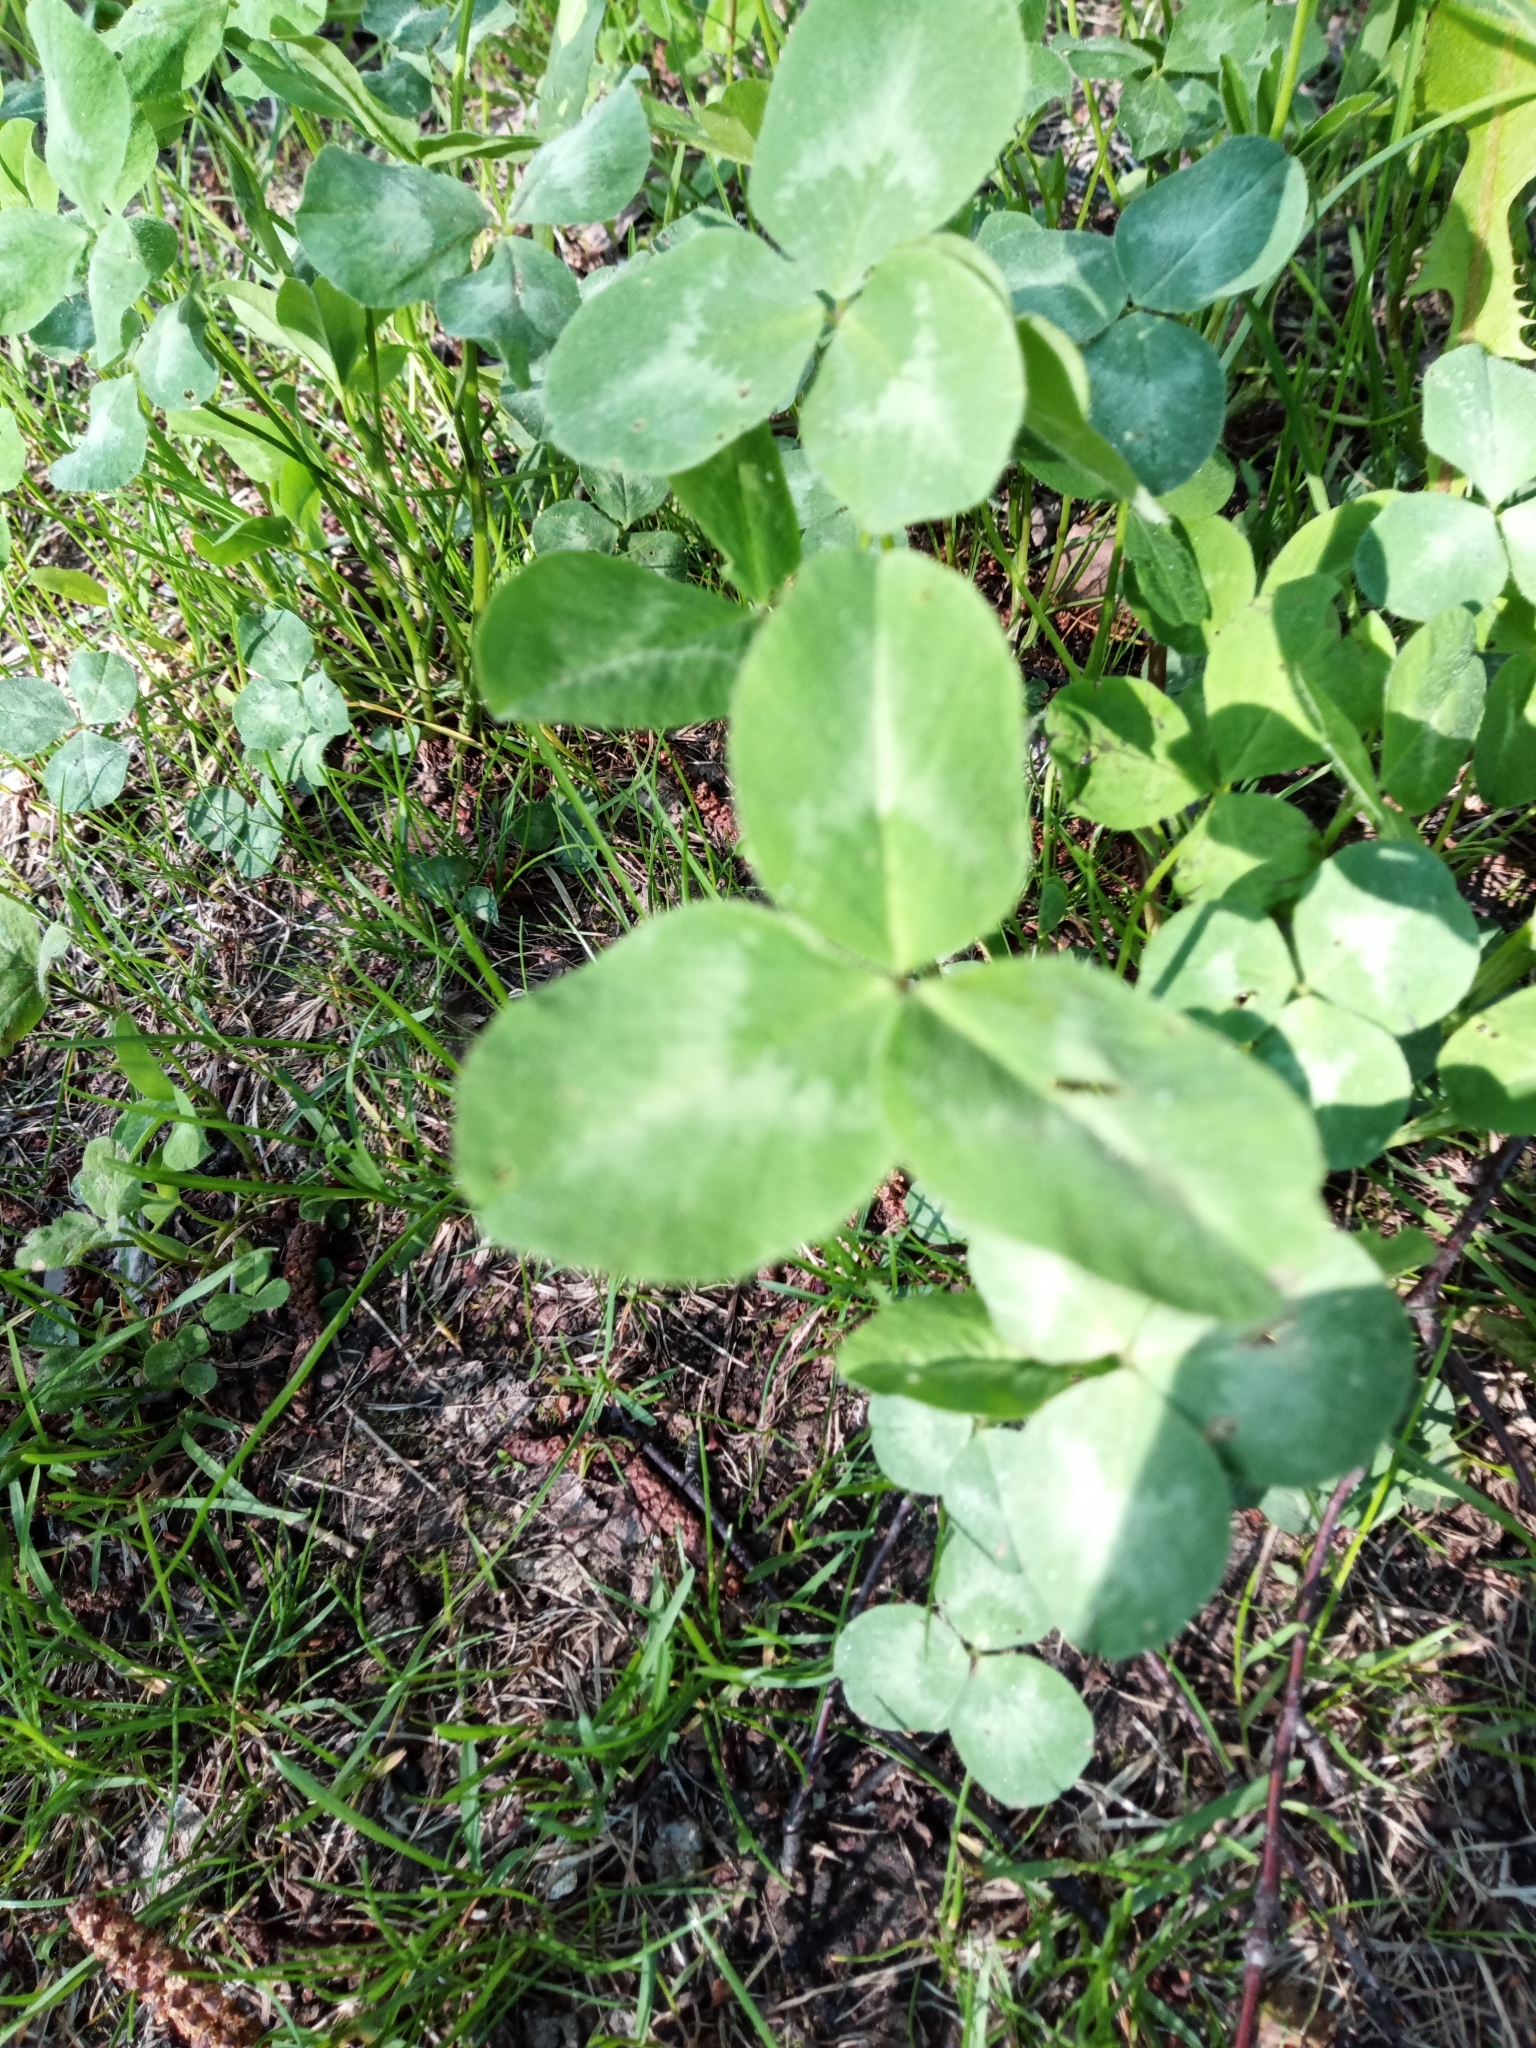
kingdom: Plantae
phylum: Tracheophyta
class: Magnoliopsida
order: Fabales
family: Fabaceae
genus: Trifolium
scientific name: Trifolium pratense
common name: Red clover
